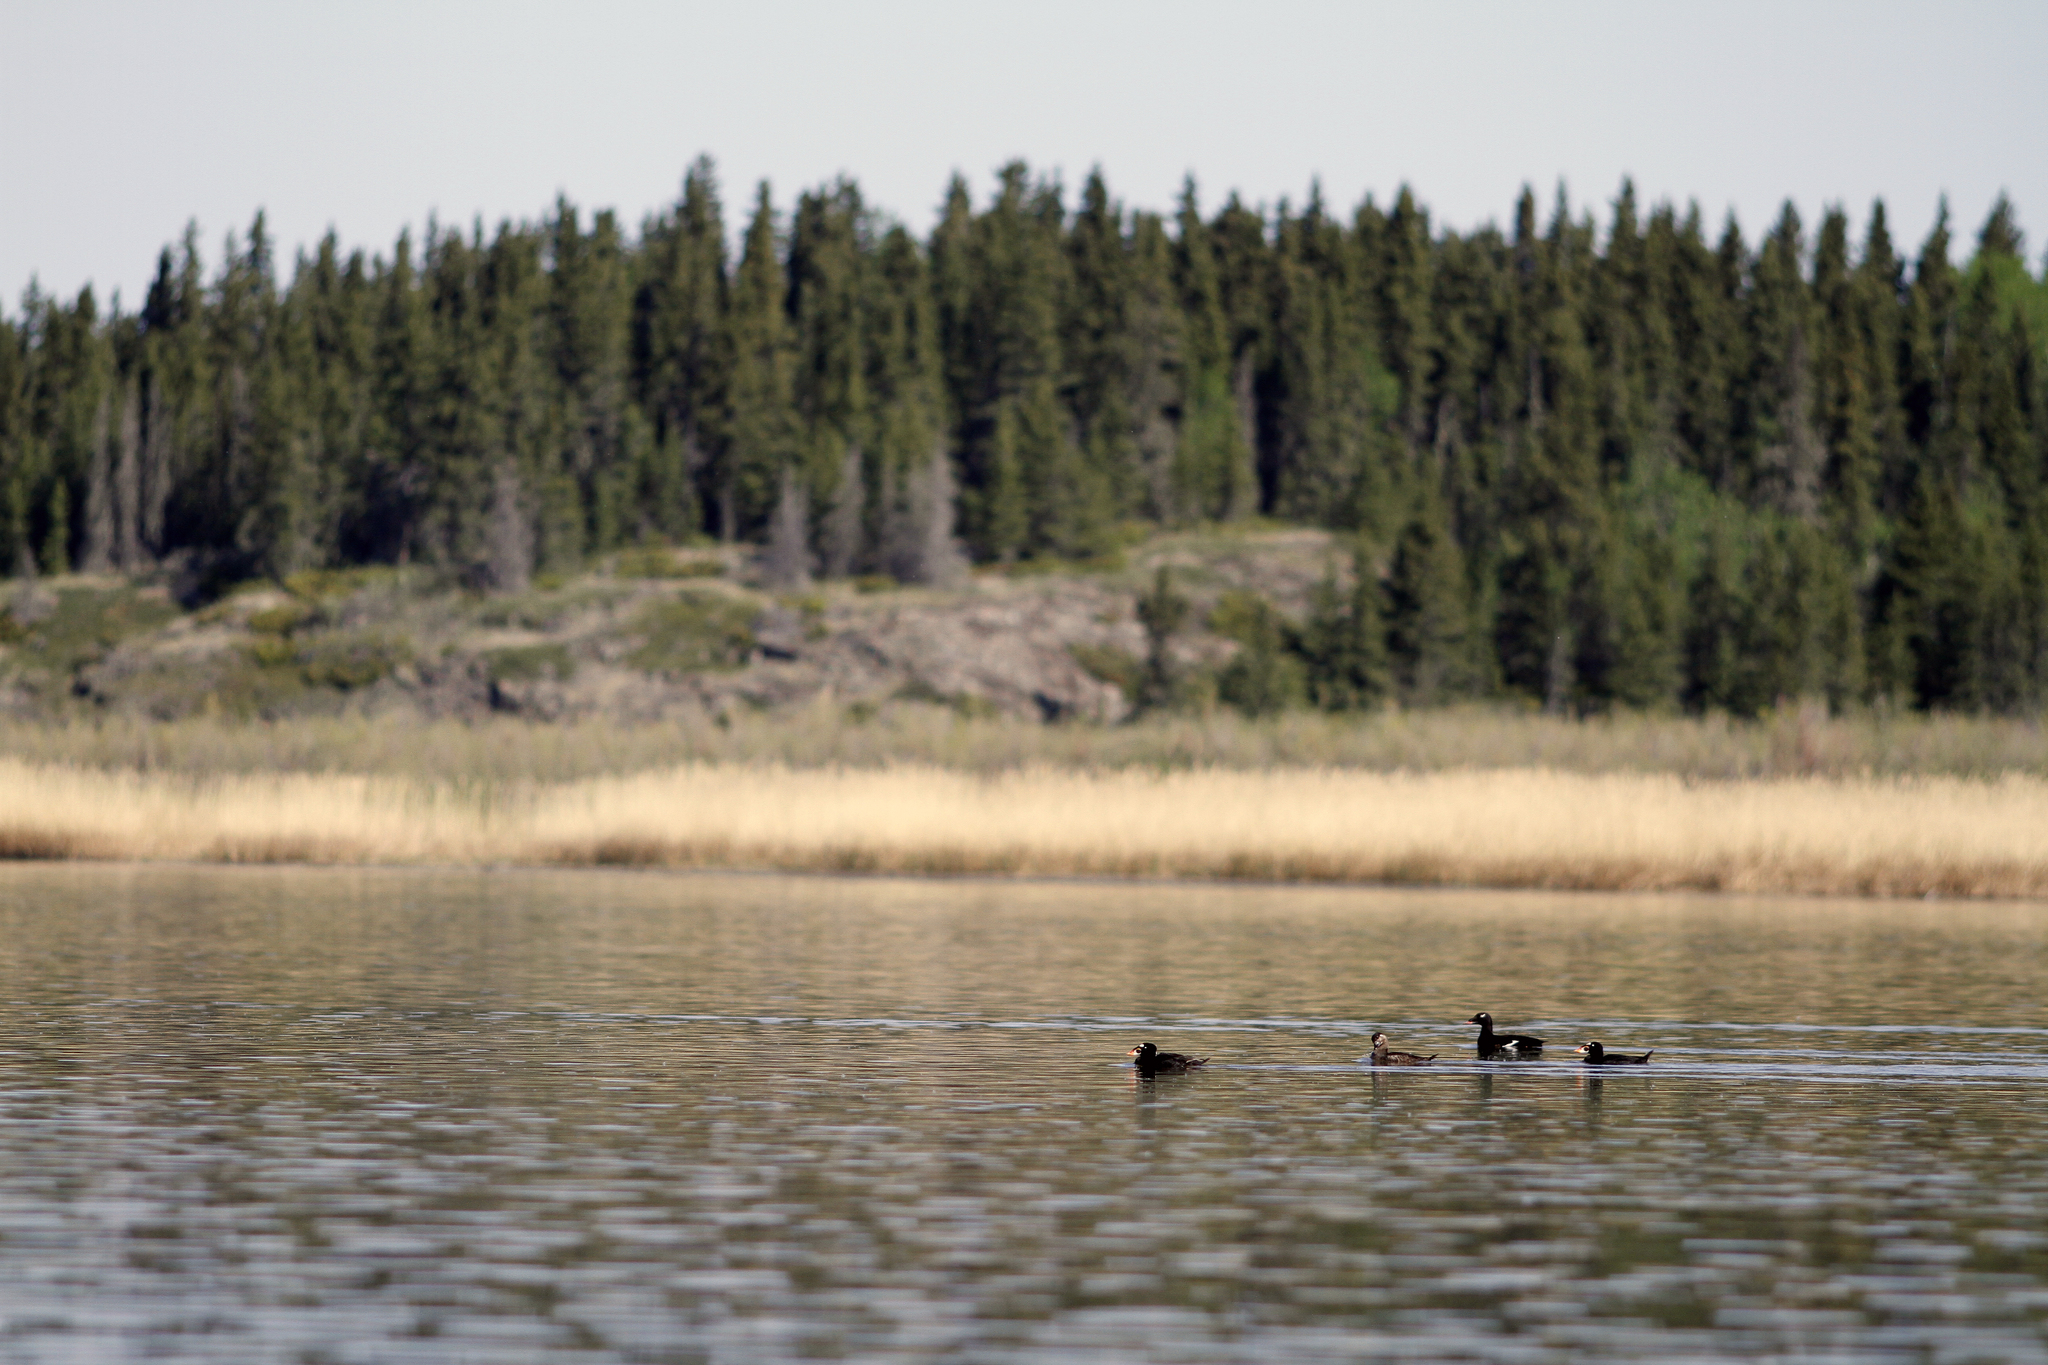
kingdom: Animalia
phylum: Chordata
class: Aves
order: Anseriformes
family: Anatidae
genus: Melanitta
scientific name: Melanitta deglandi
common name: White-winged scoter
